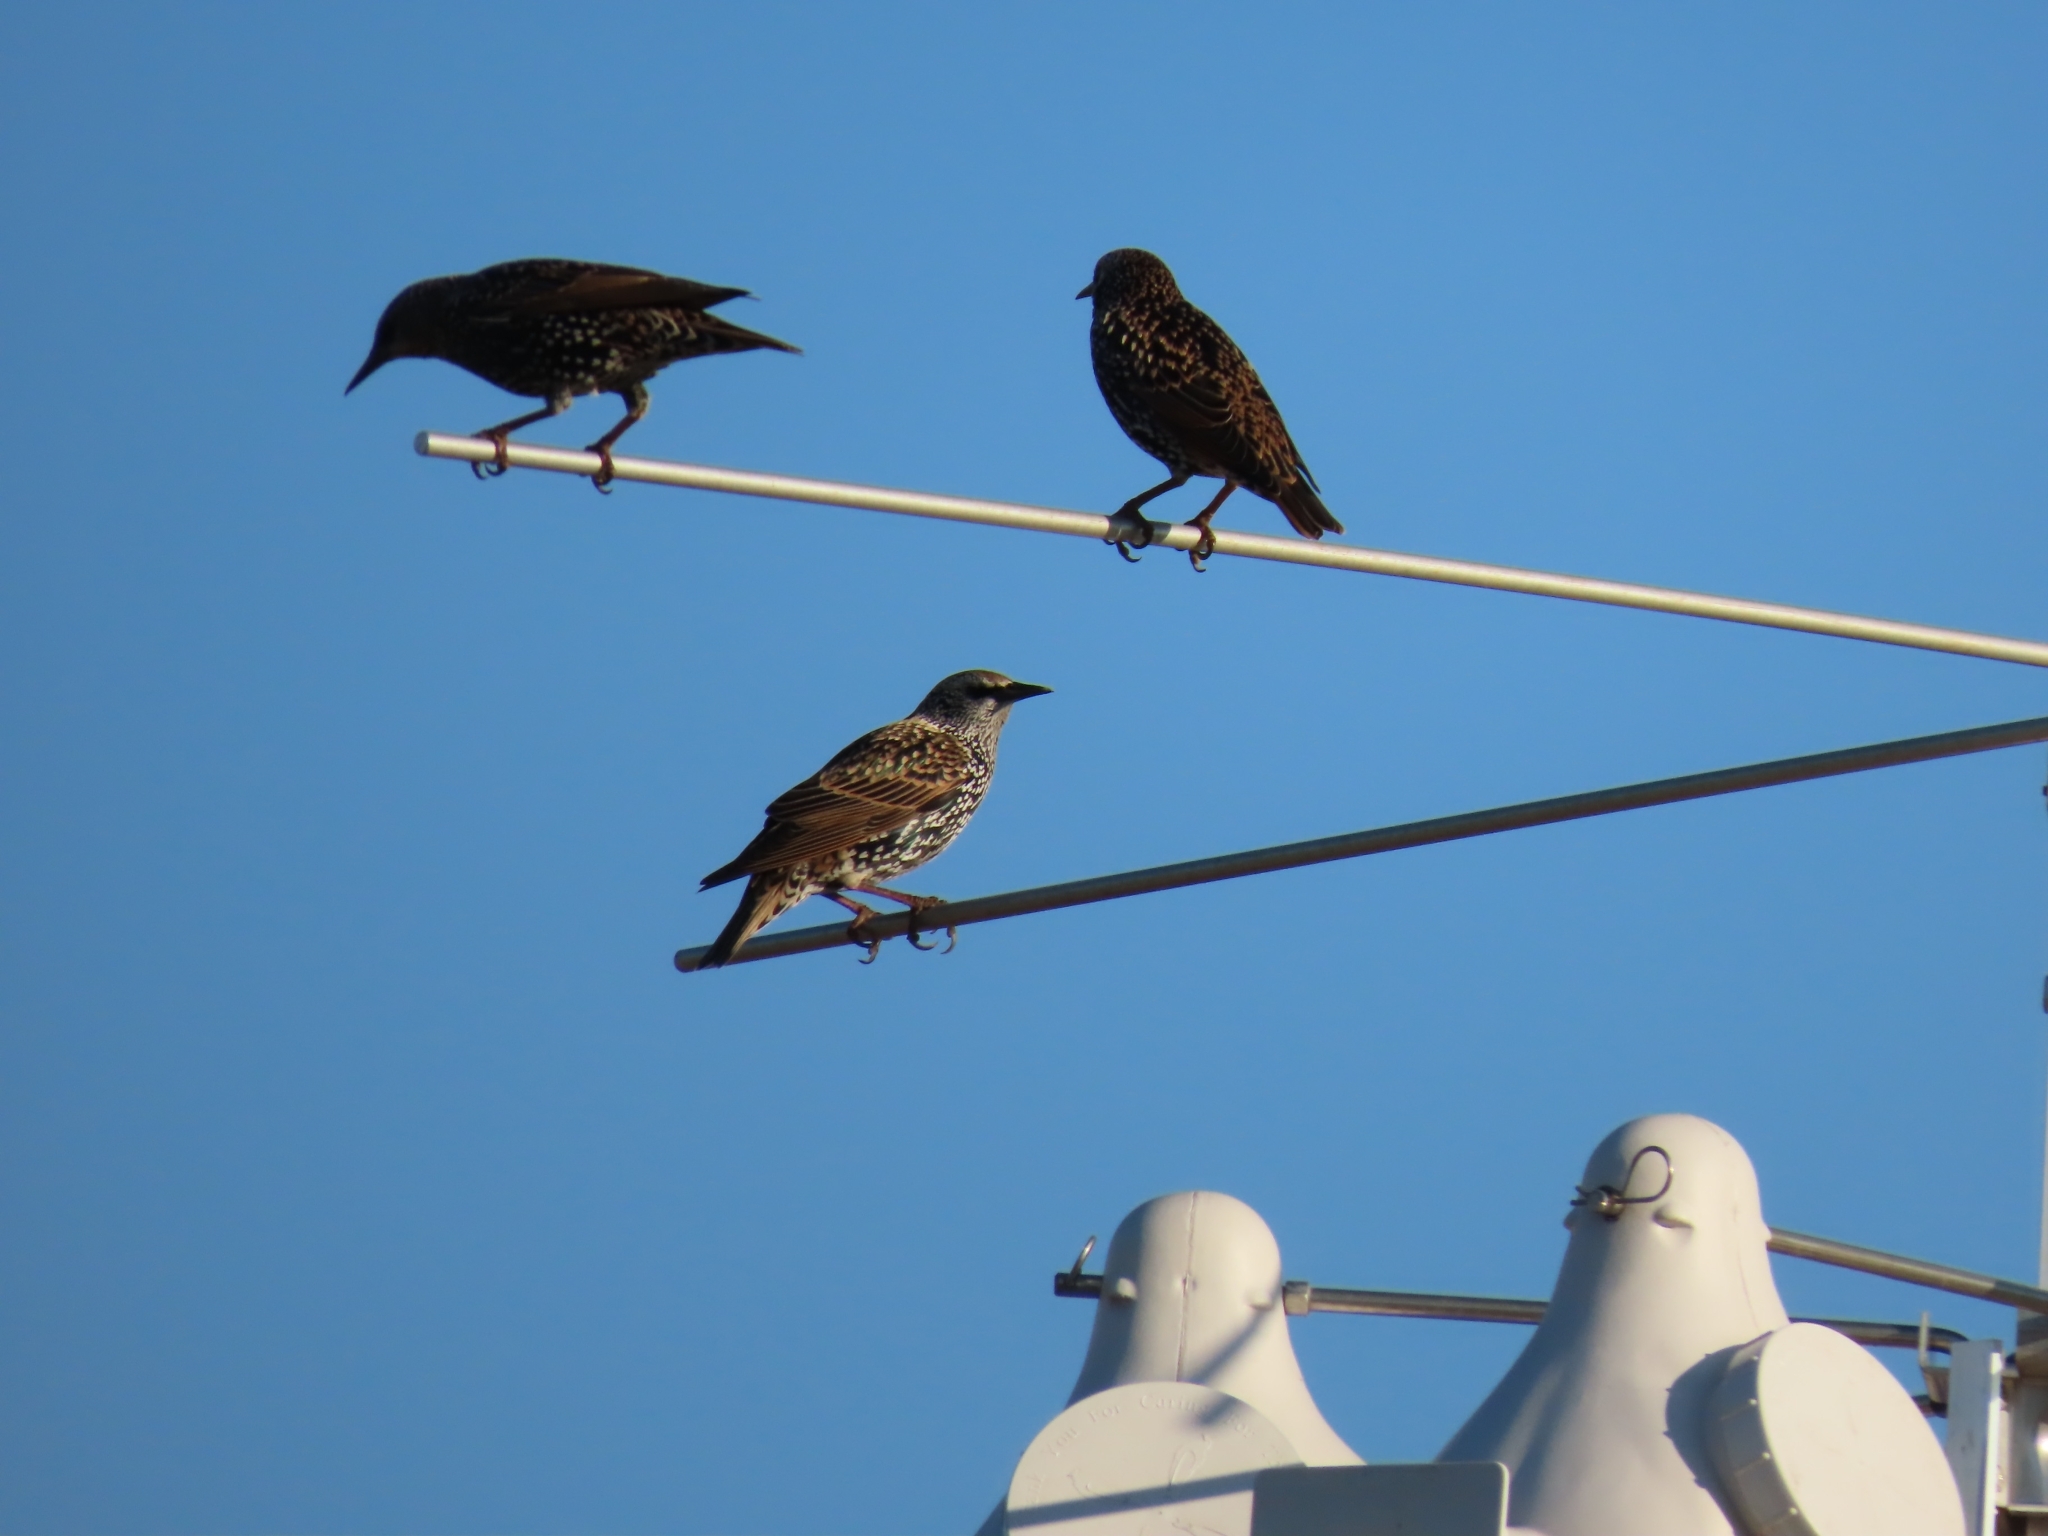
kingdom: Animalia
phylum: Chordata
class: Aves
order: Passeriformes
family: Sturnidae
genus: Sturnus
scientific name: Sturnus vulgaris
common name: Common starling
